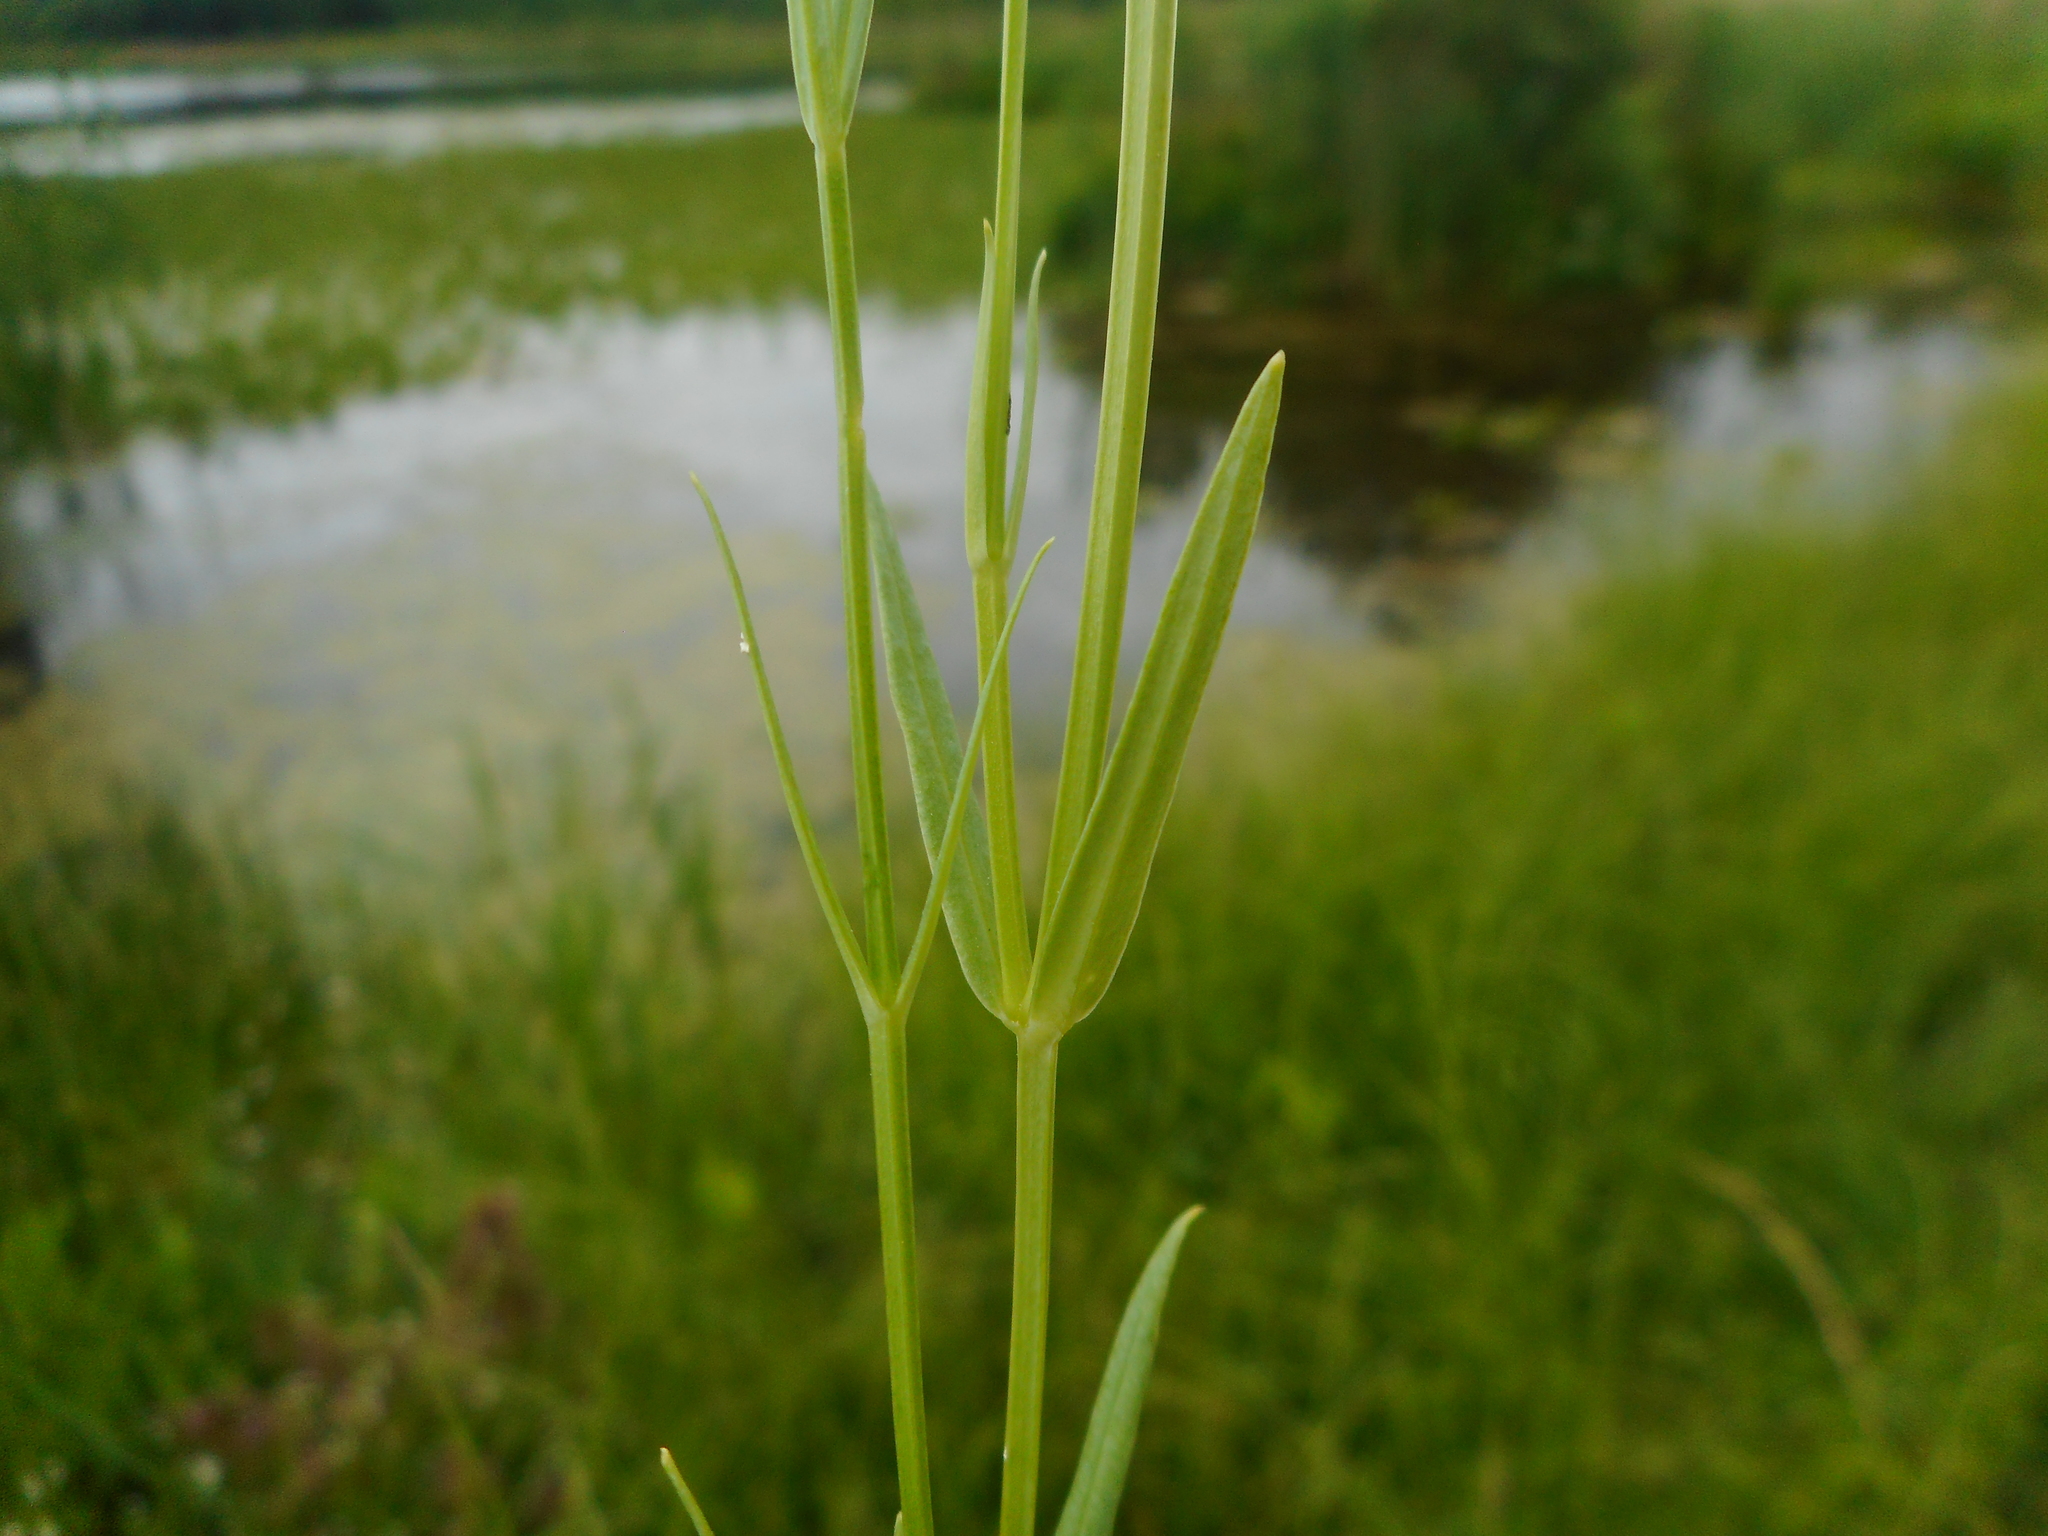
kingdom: Plantae
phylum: Tracheophyta
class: Magnoliopsida
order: Caryophyllales
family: Caryophyllaceae
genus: Stellaria
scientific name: Stellaria palustris
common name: Marsh stitchwort
